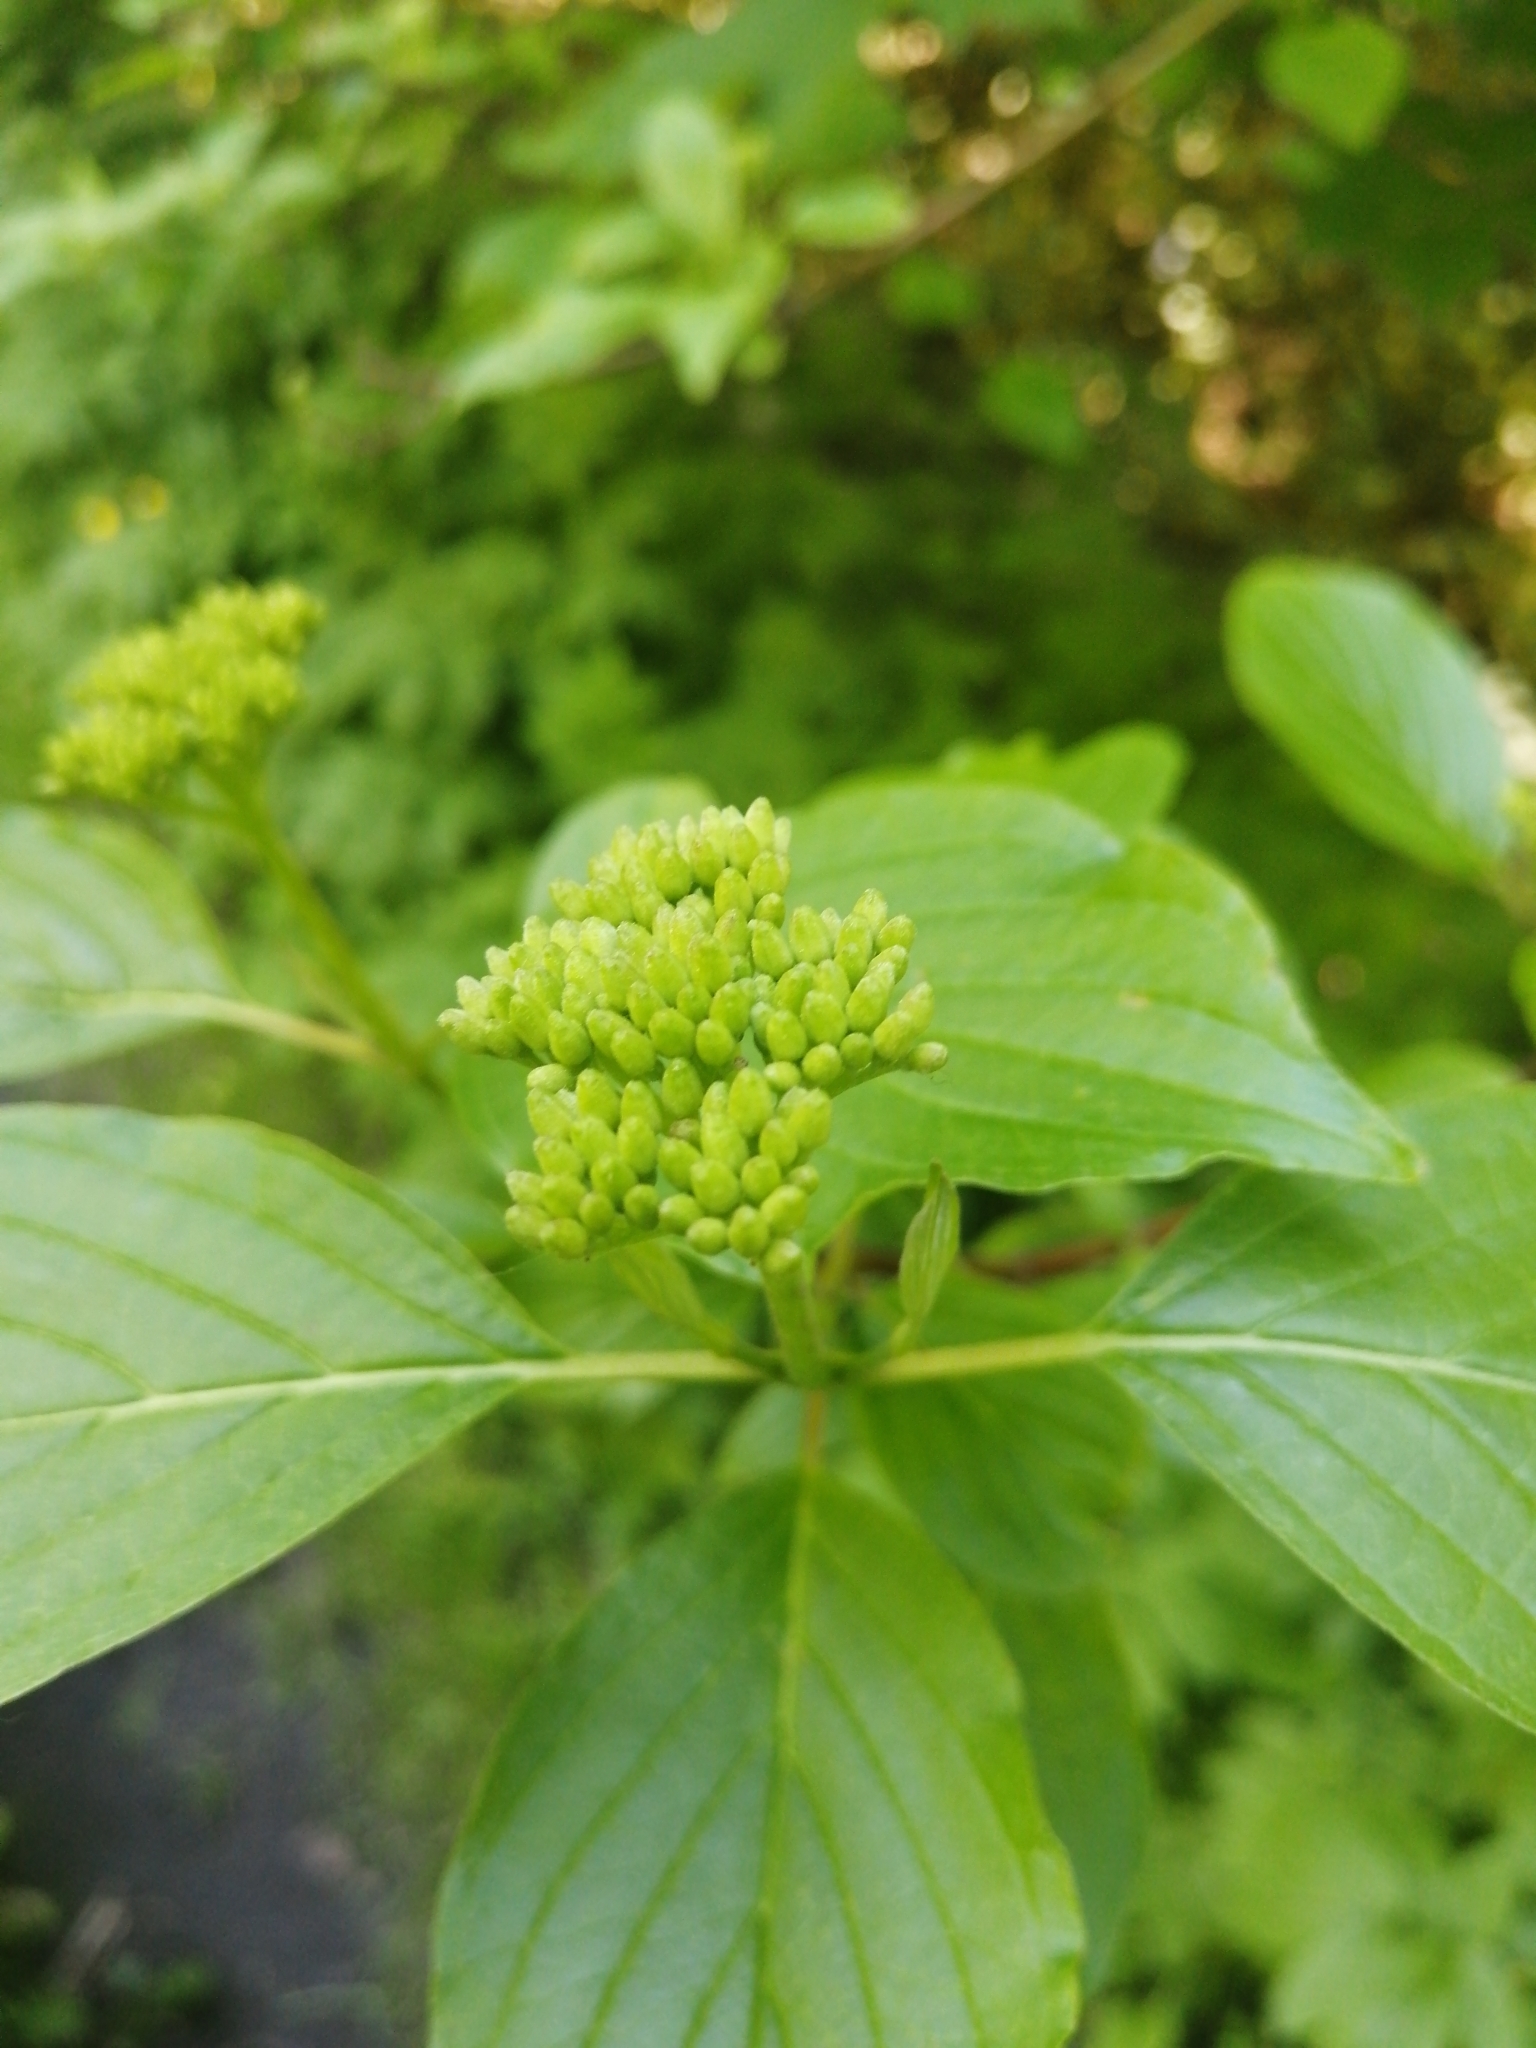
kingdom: Plantae
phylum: Tracheophyta
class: Magnoliopsida
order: Cornales
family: Cornaceae
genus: Cornus
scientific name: Cornus alba
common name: White dogwood
